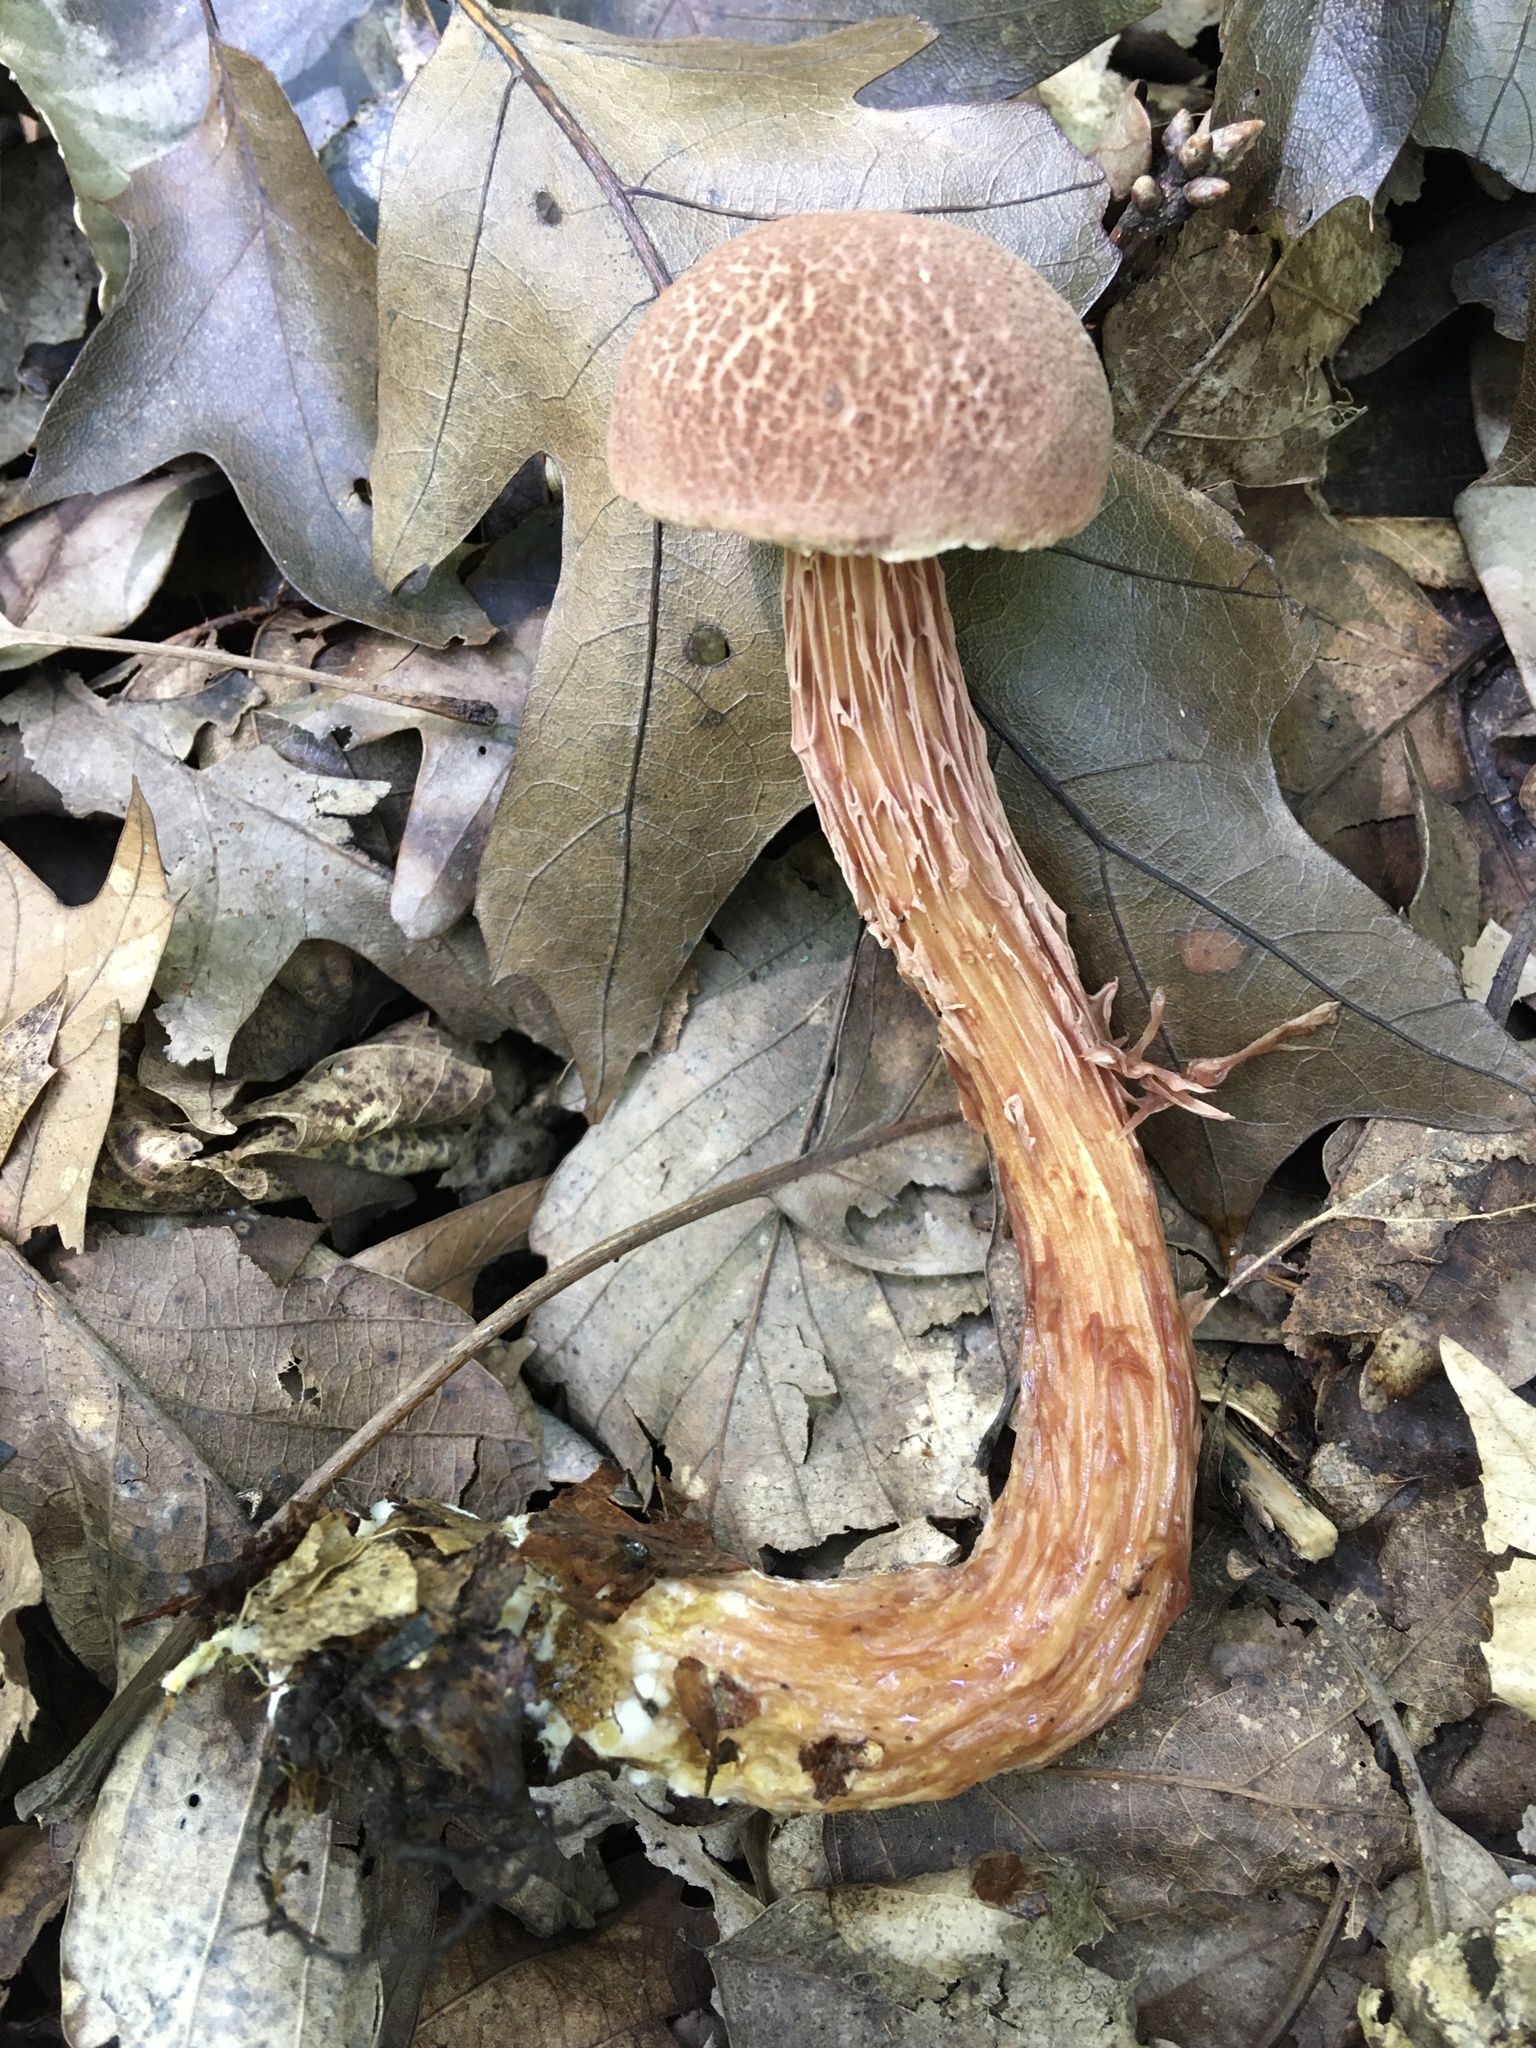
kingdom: Fungi
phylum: Basidiomycota
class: Agaricomycetes
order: Boletales
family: Boletaceae
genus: Aureoboletus
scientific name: Aureoboletus russellii
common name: Russell's bolete
